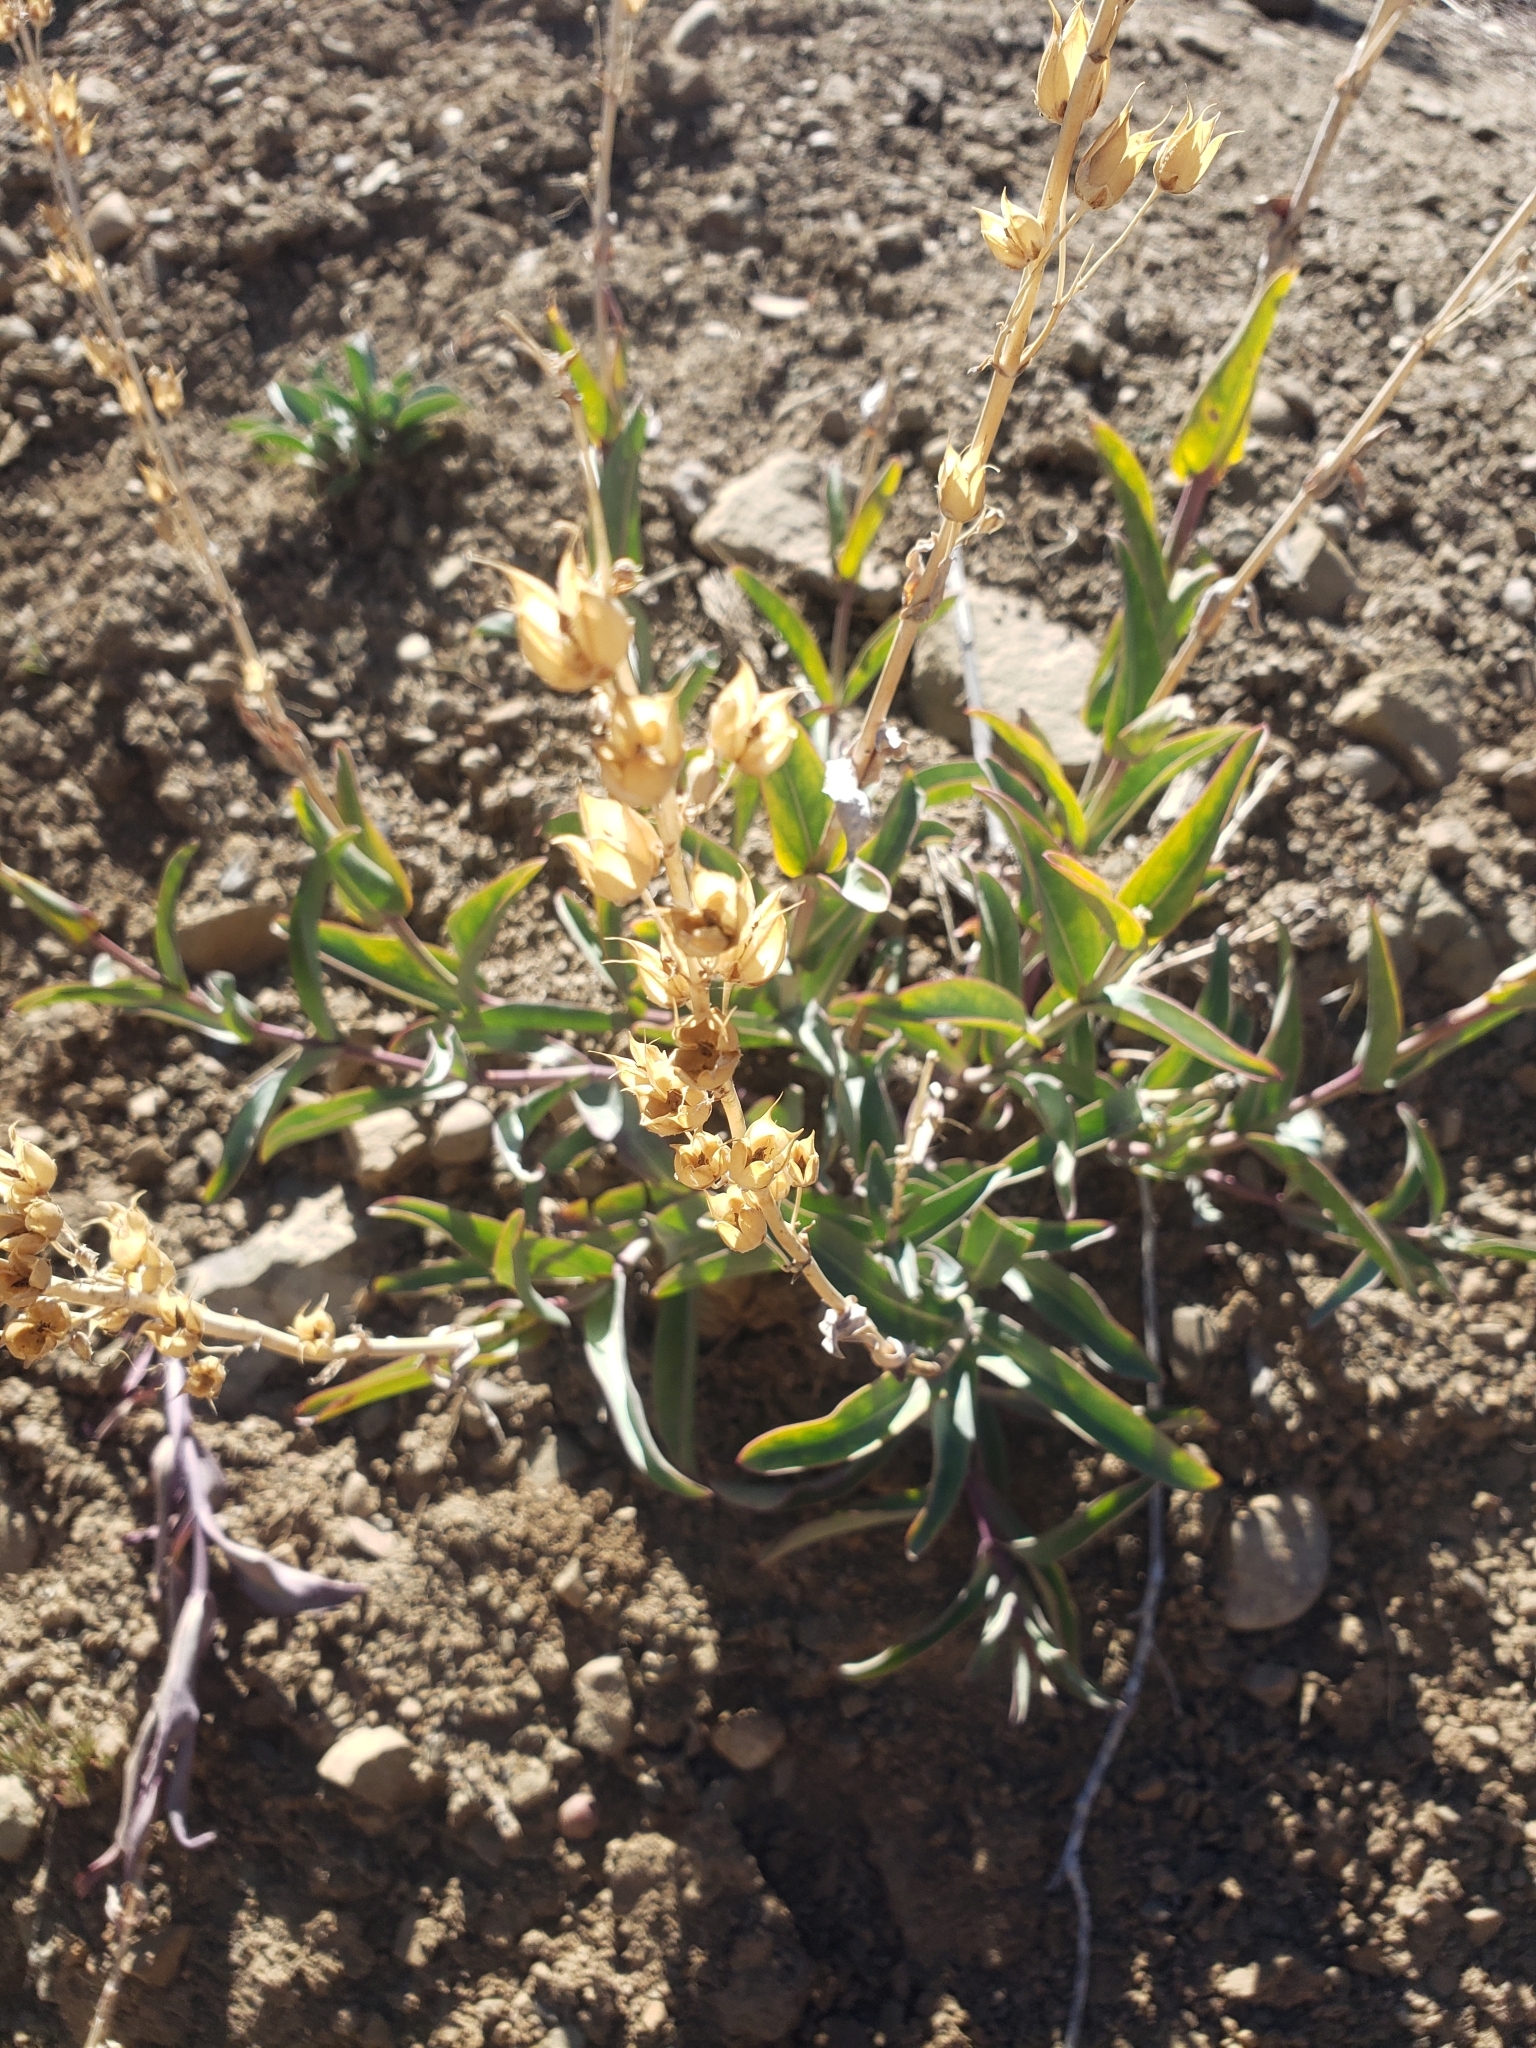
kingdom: Plantae
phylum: Tracheophyta
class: Magnoliopsida
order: Lamiales
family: Plantaginaceae
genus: Penstemon
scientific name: Penstemon centranthifolius
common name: Scarlet bugler
